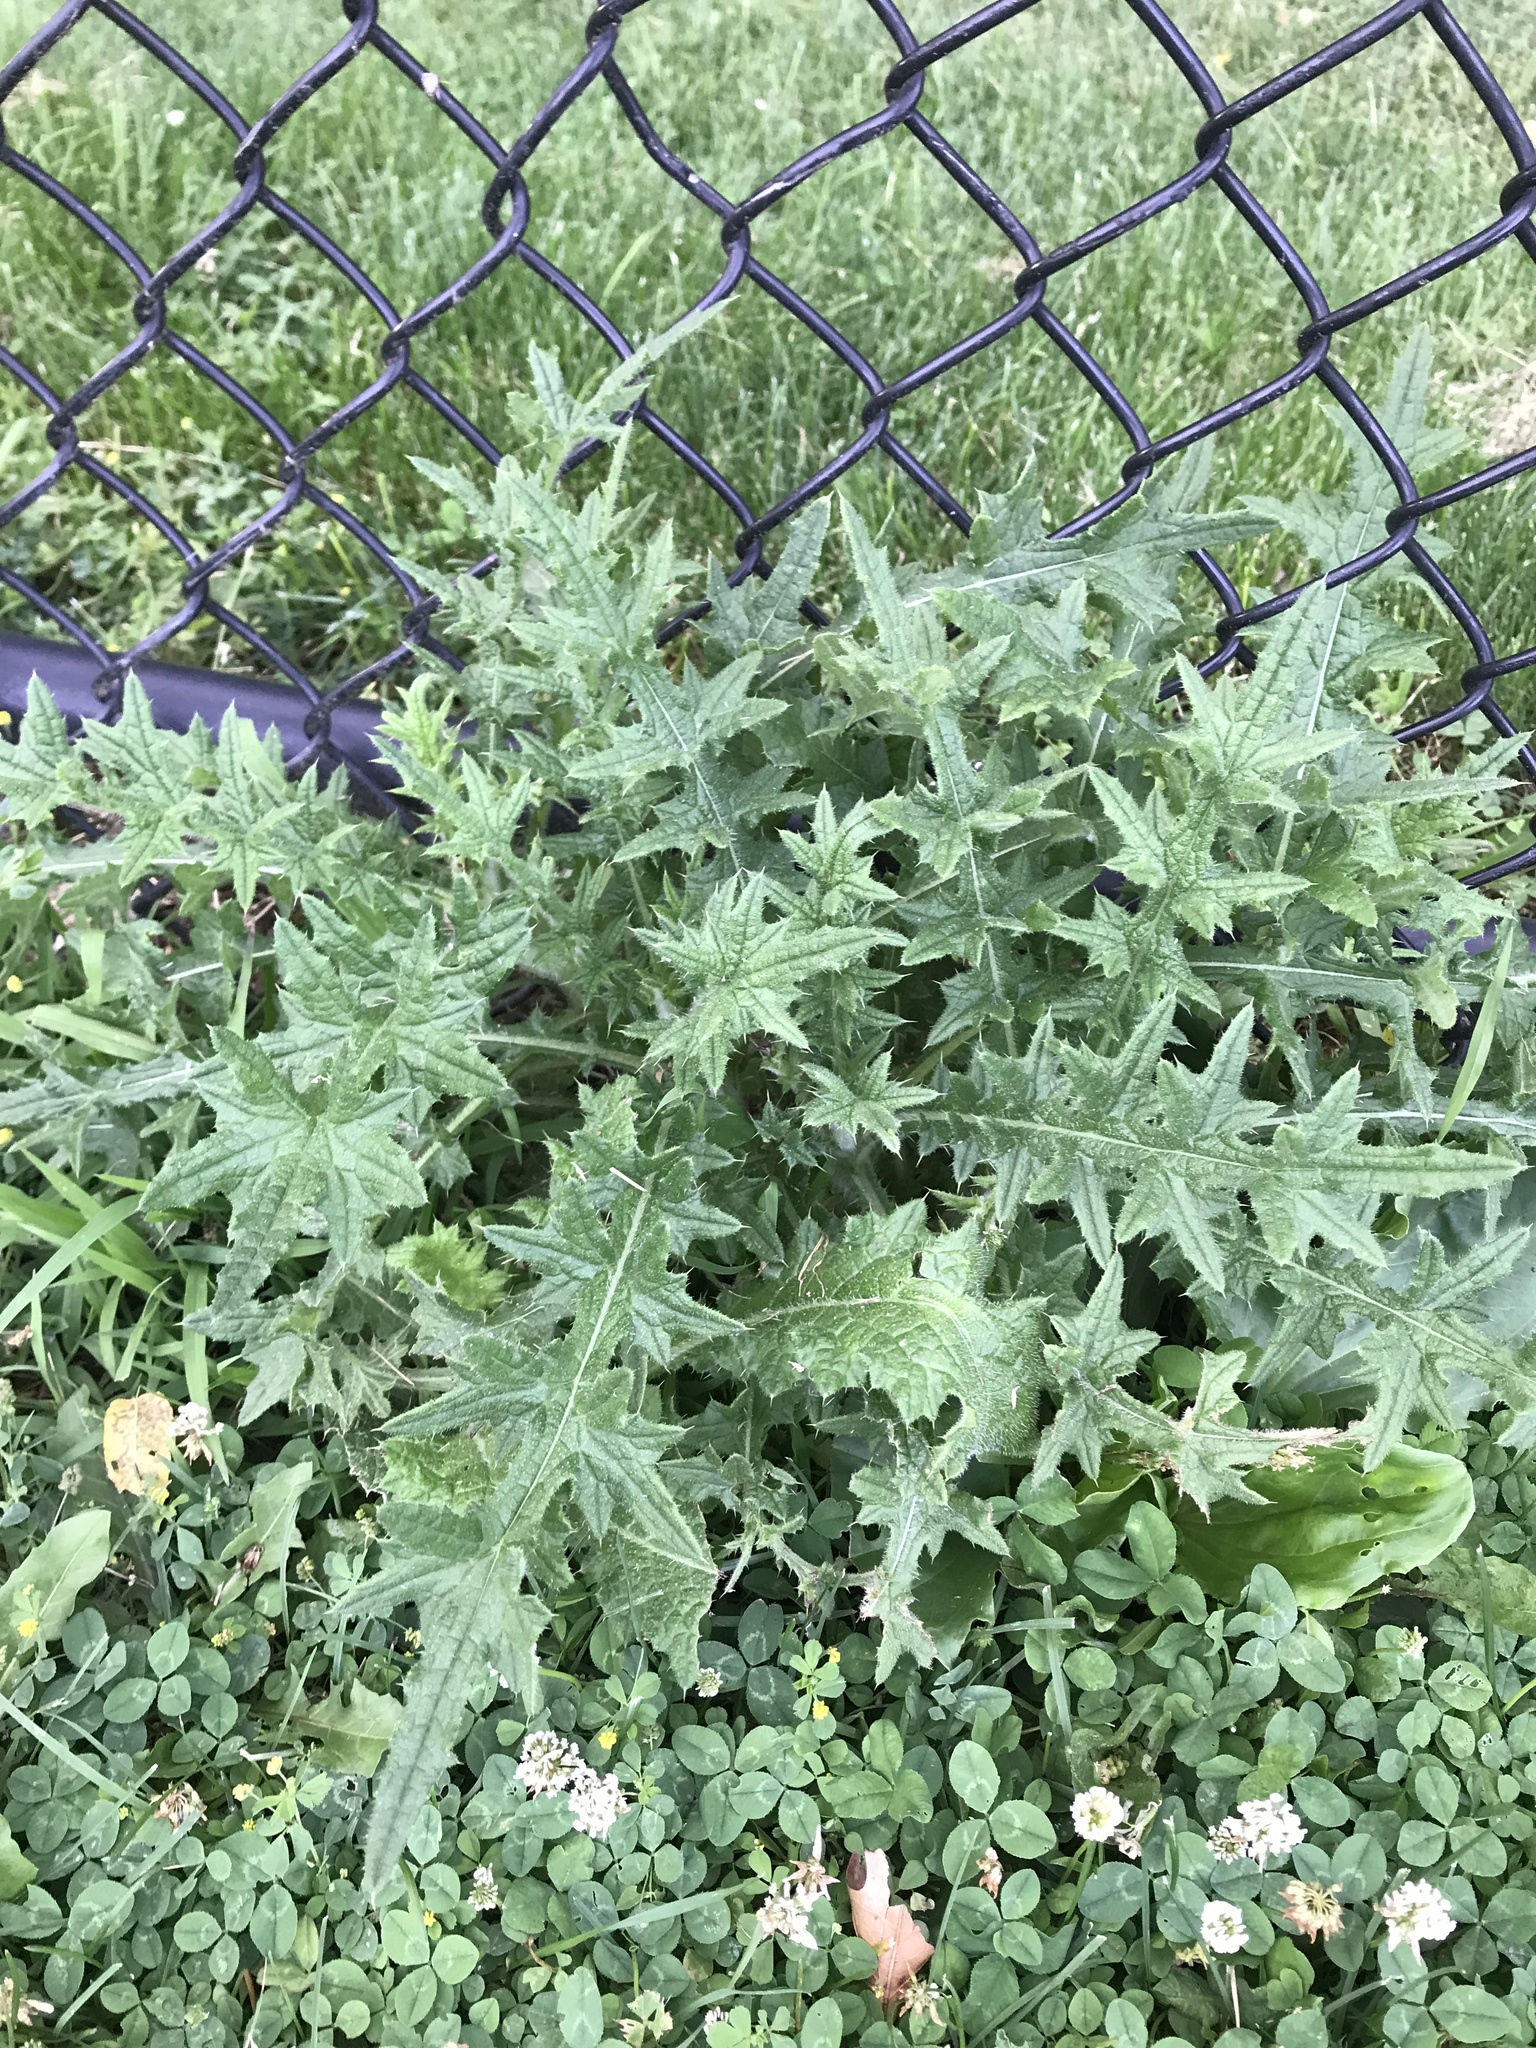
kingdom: Plantae
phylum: Tracheophyta
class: Magnoliopsida
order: Asterales
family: Asteraceae
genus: Cirsium
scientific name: Cirsium vulgare
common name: Bull thistle
